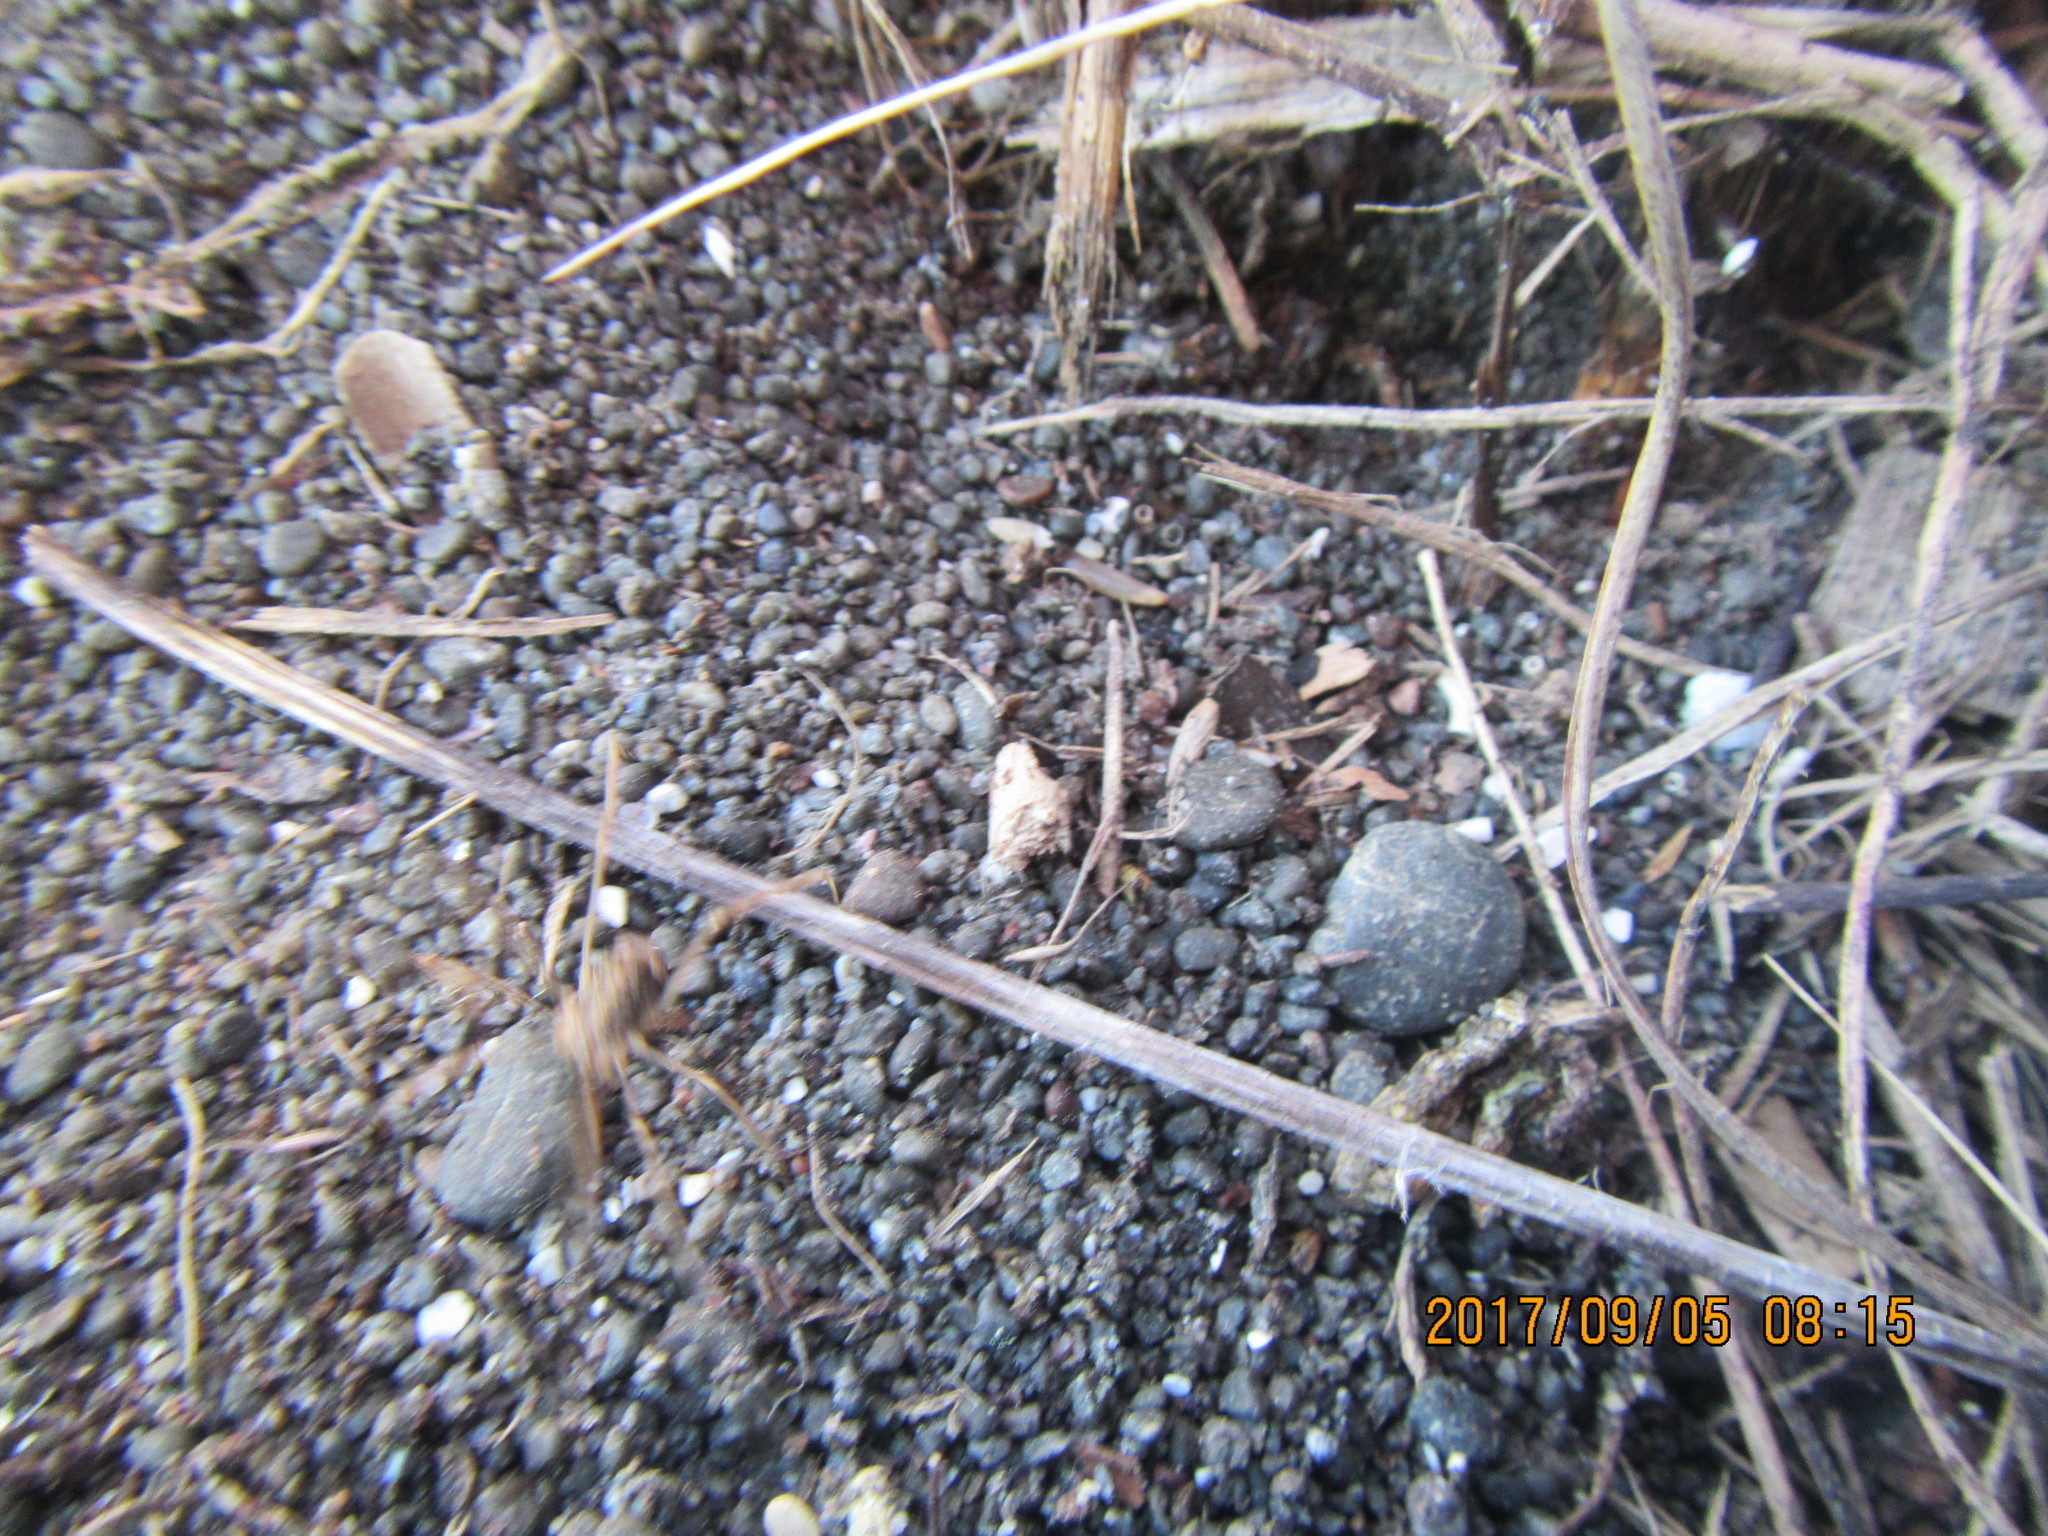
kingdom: Animalia
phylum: Arthropoda
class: Arachnida
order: Opiliones
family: Phalangiidae
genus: Phalangium
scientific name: Phalangium opilio
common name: Daddy longleg
